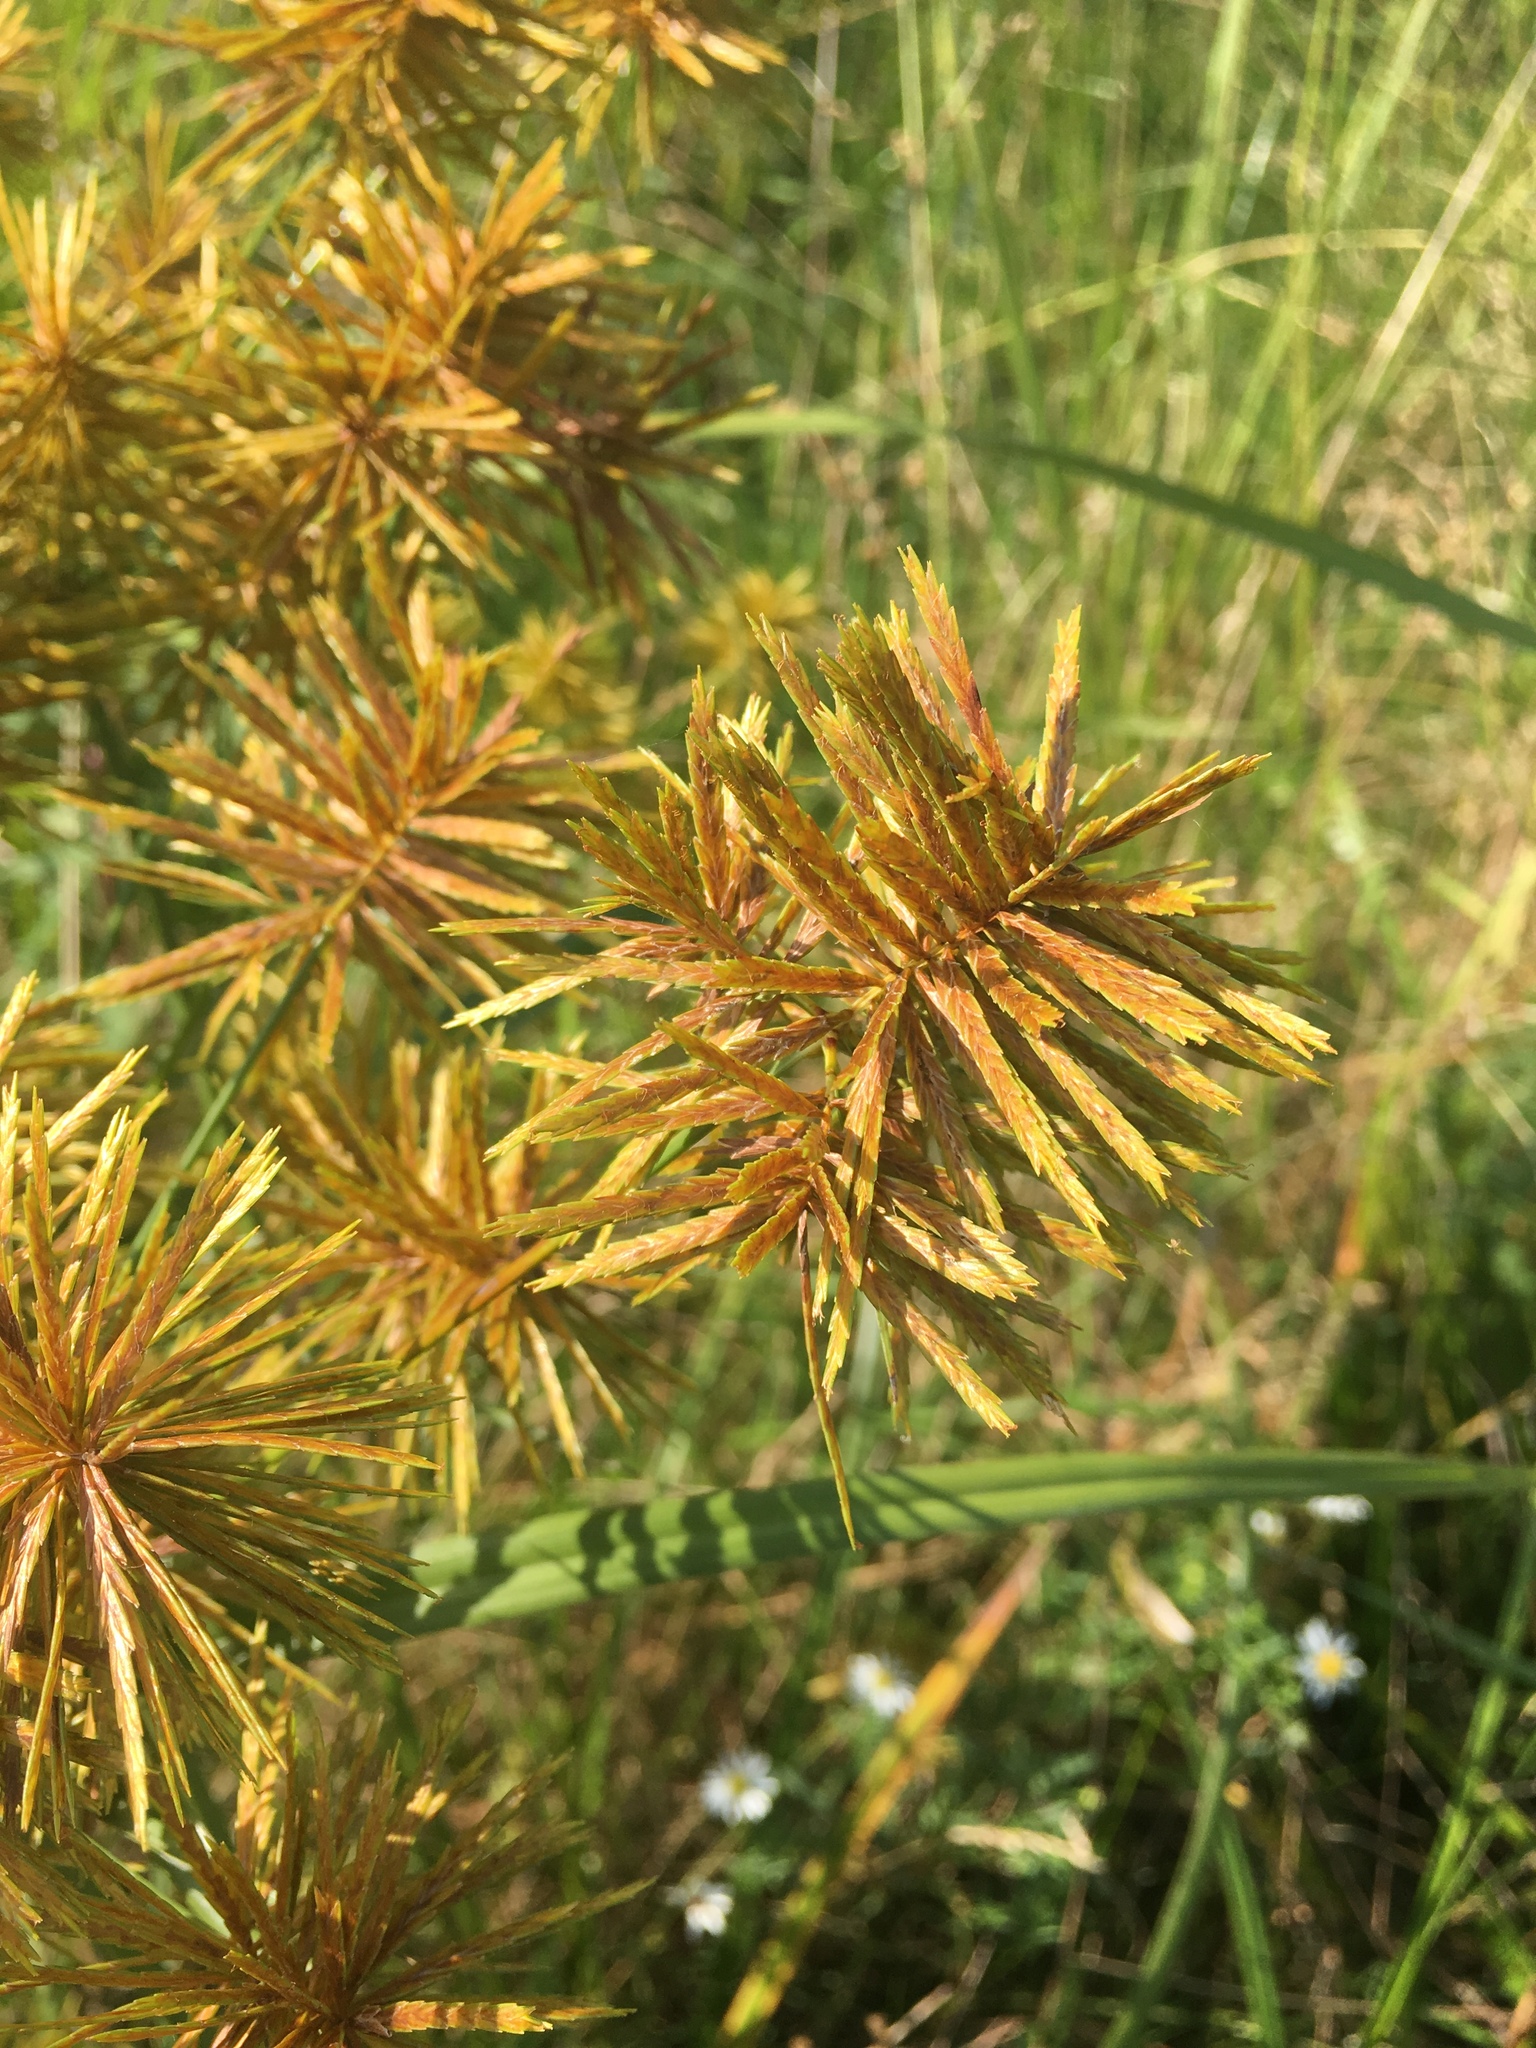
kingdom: Plantae
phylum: Tracheophyta
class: Liliopsida
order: Poales
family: Cyperaceae
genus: Cyperus
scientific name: Cyperus strigosus
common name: False nutsedge
